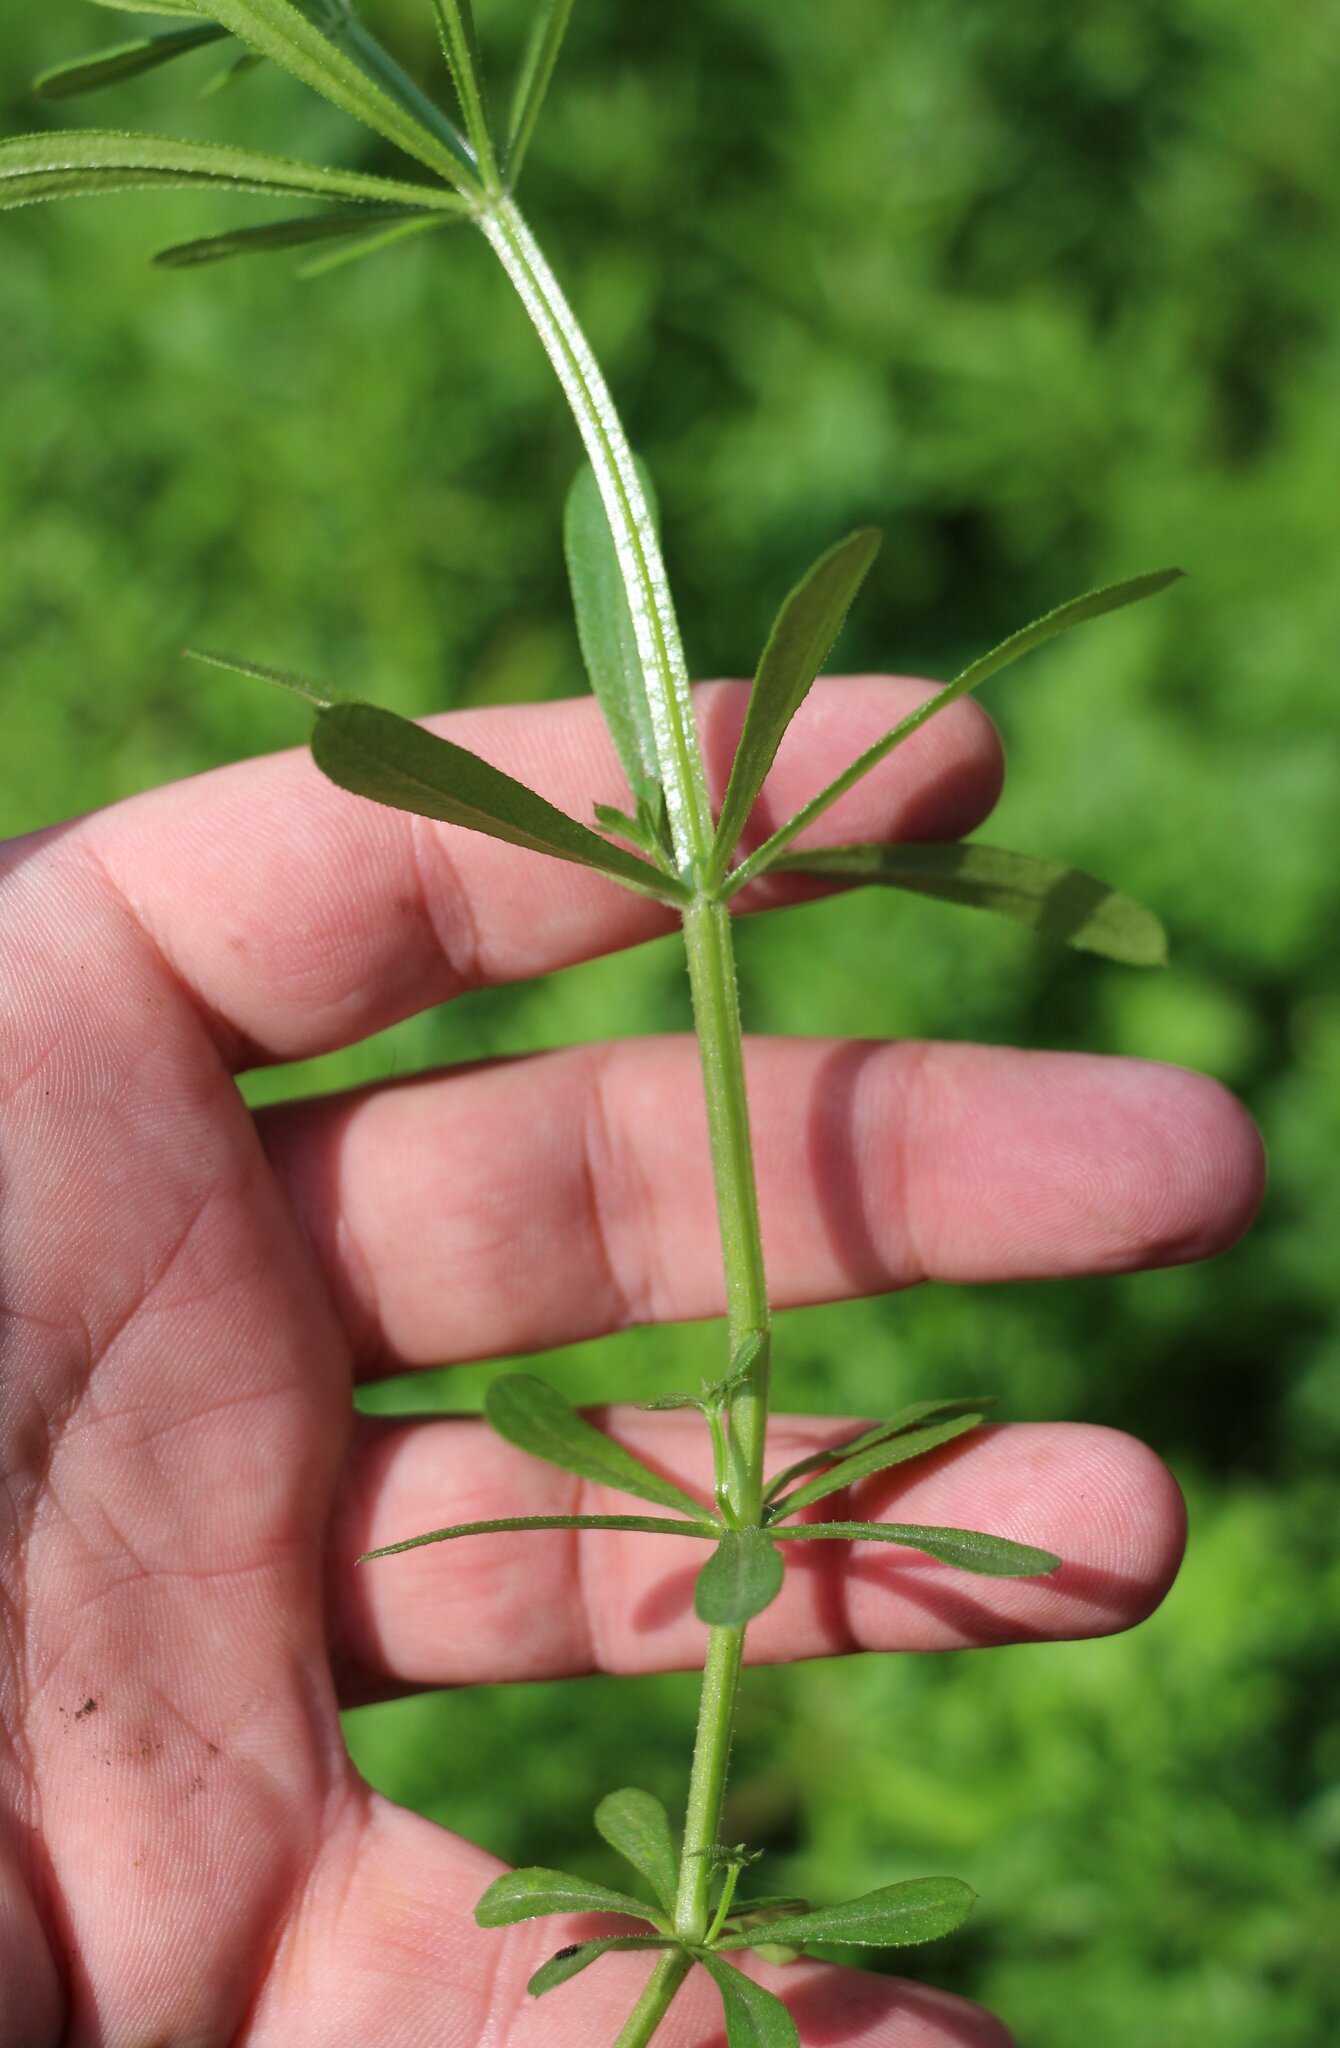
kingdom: Plantae
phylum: Tracheophyta
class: Magnoliopsida
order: Gentianales
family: Rubiaceae
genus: Galium
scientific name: Galium aparine
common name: Cleavers
